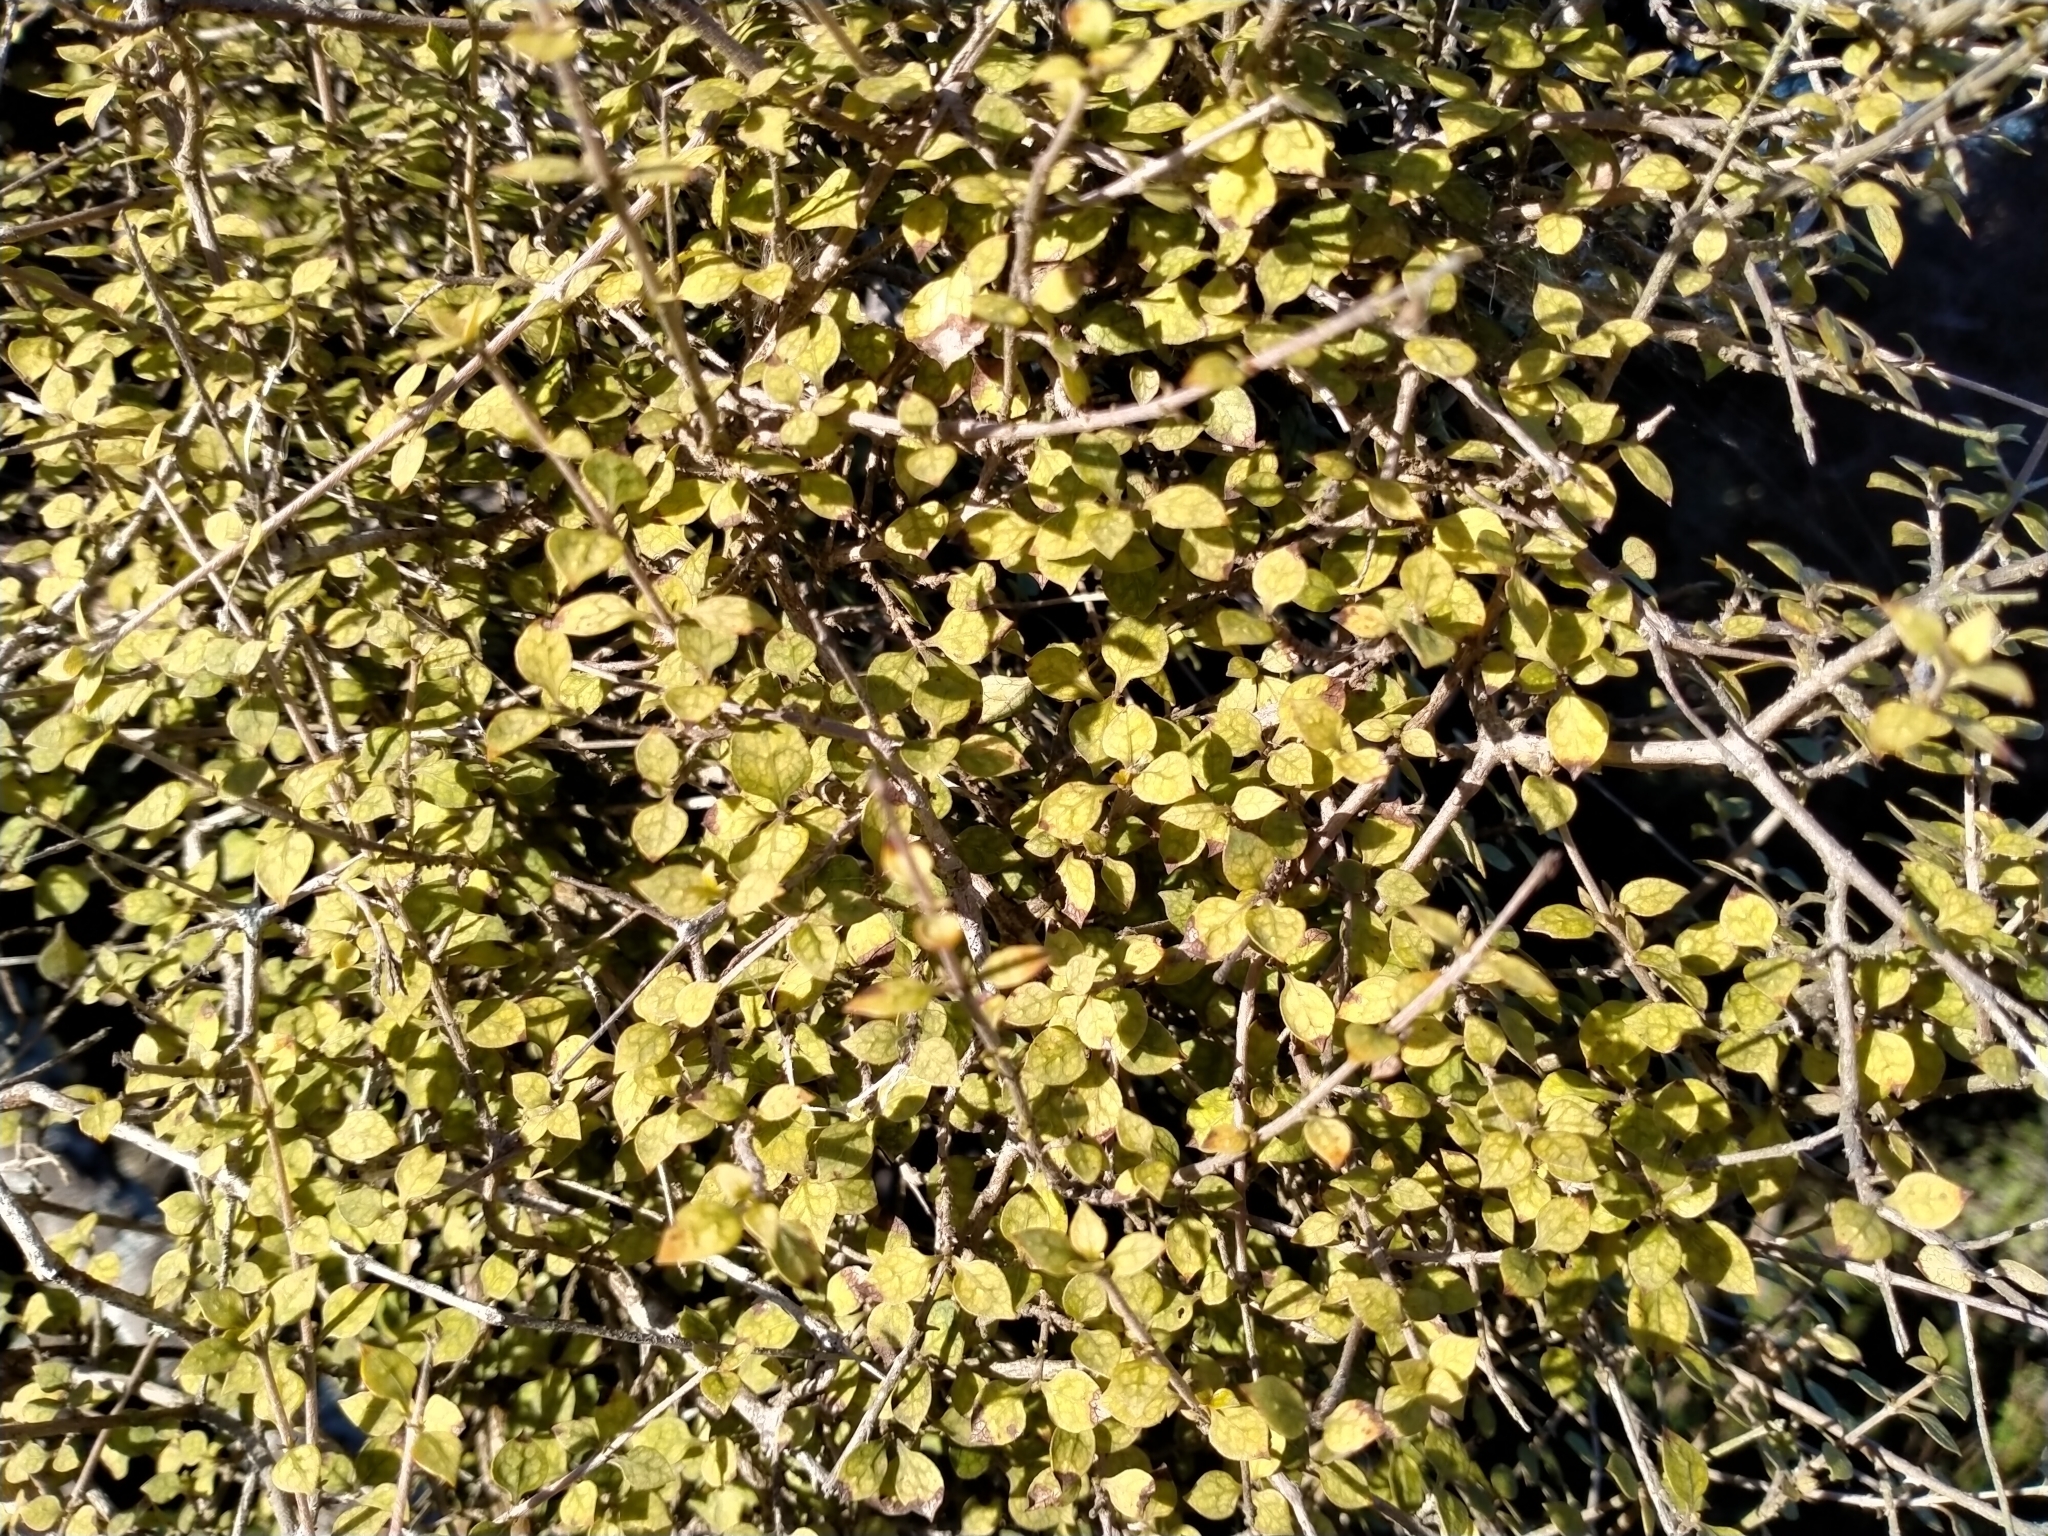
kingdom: Plantae
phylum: Tracheophyta
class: Magnoliopsida
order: Gentianales
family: Rubiaceae
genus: Coprosma
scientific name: Coprosma areolata
